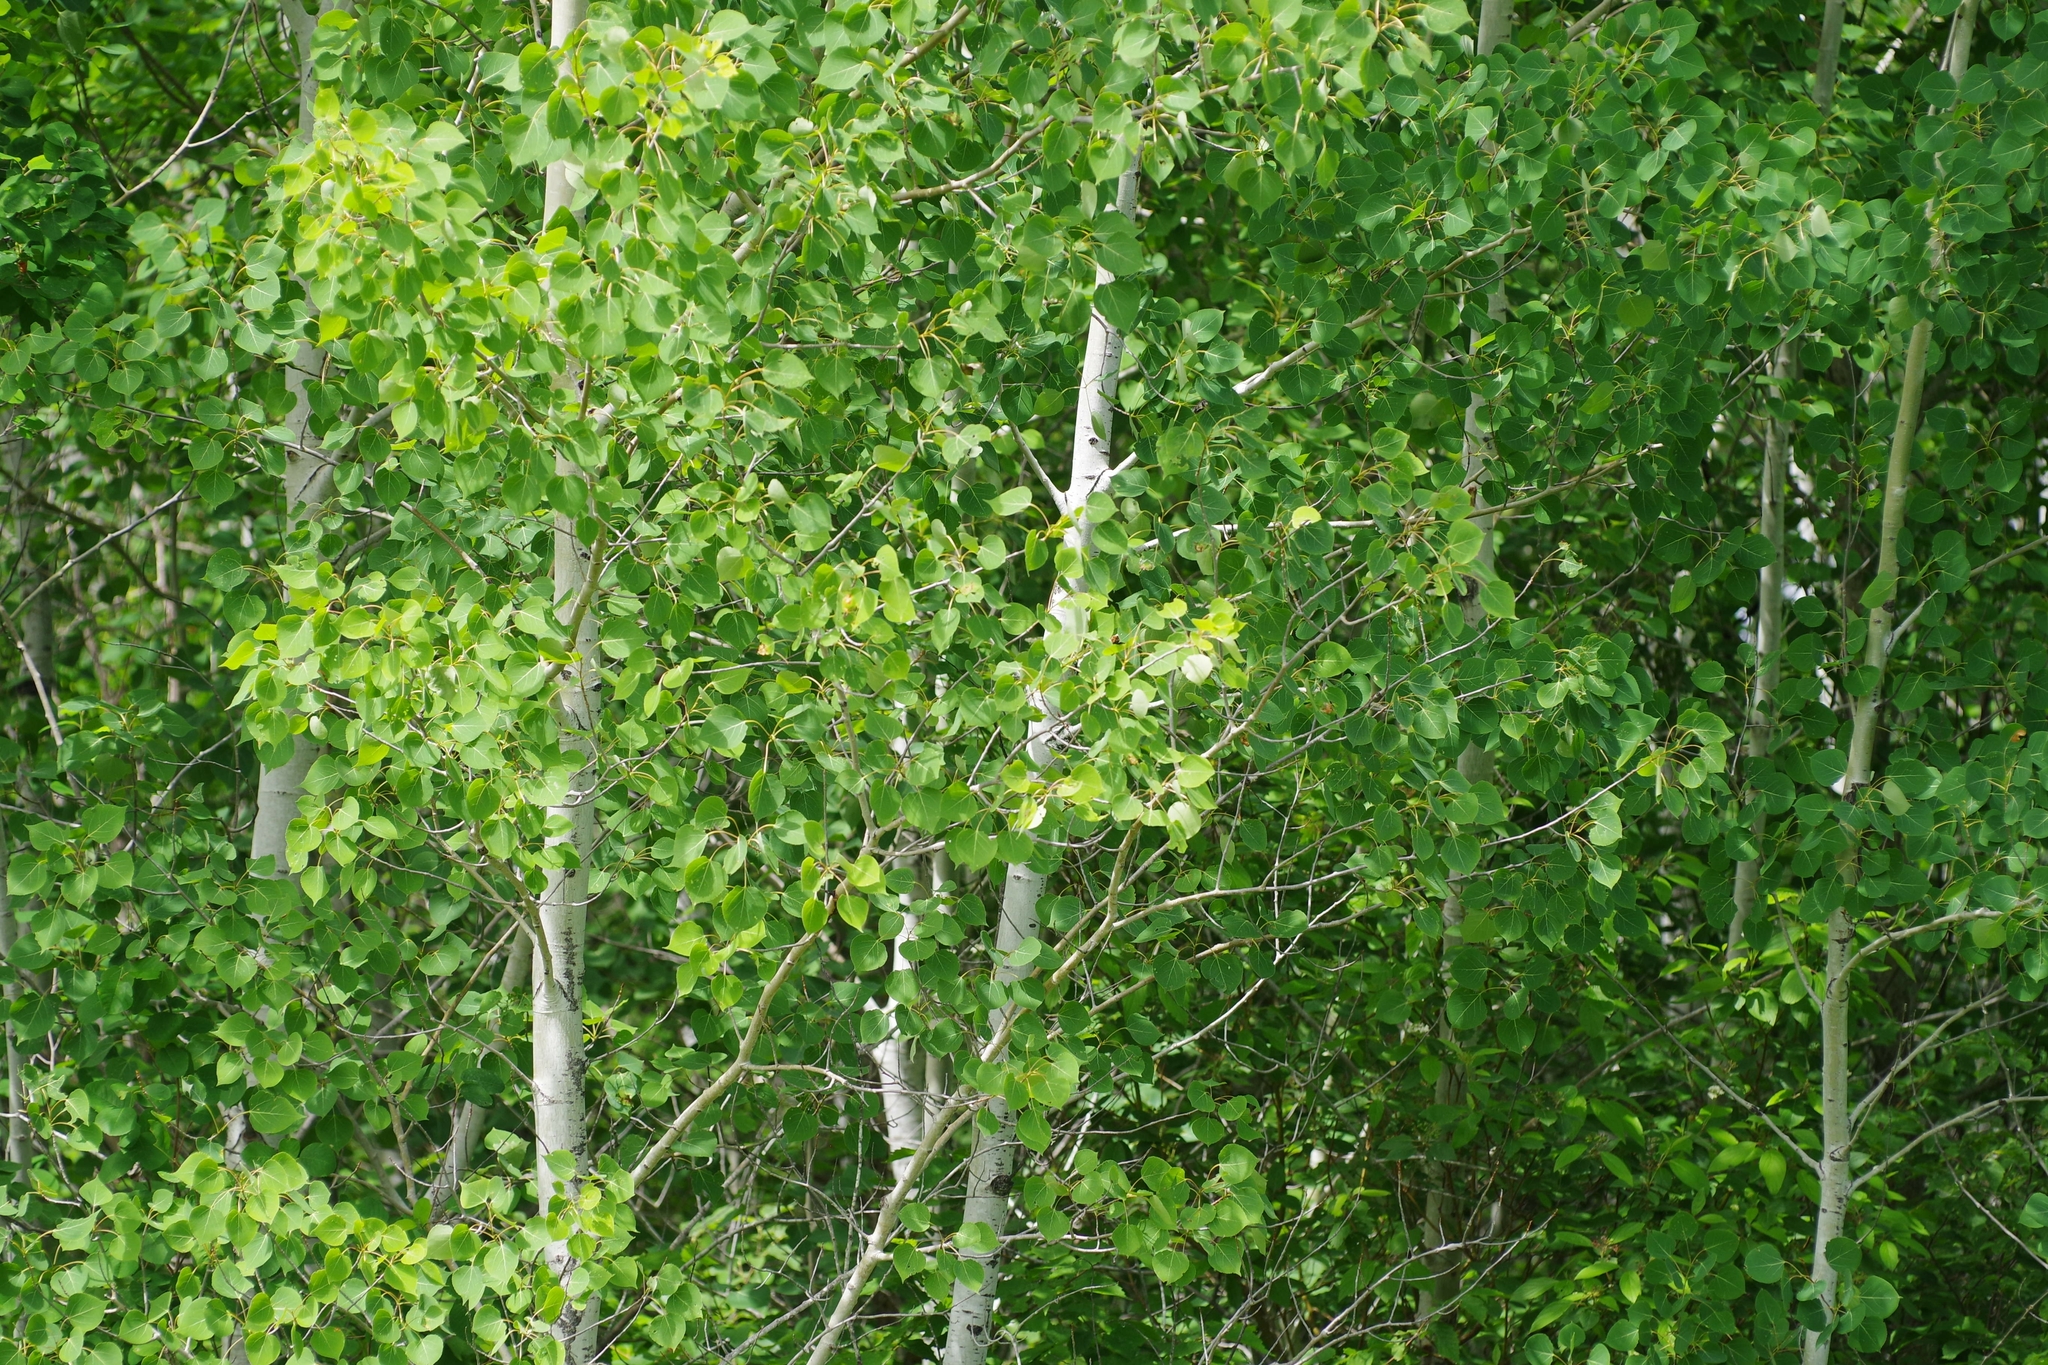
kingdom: Plantae
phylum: Tracheophyta
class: Magnoliopsida
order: Malpighiales
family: Salicaceae
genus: Populus
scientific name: Populus tremuloides
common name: Quaking aspen
